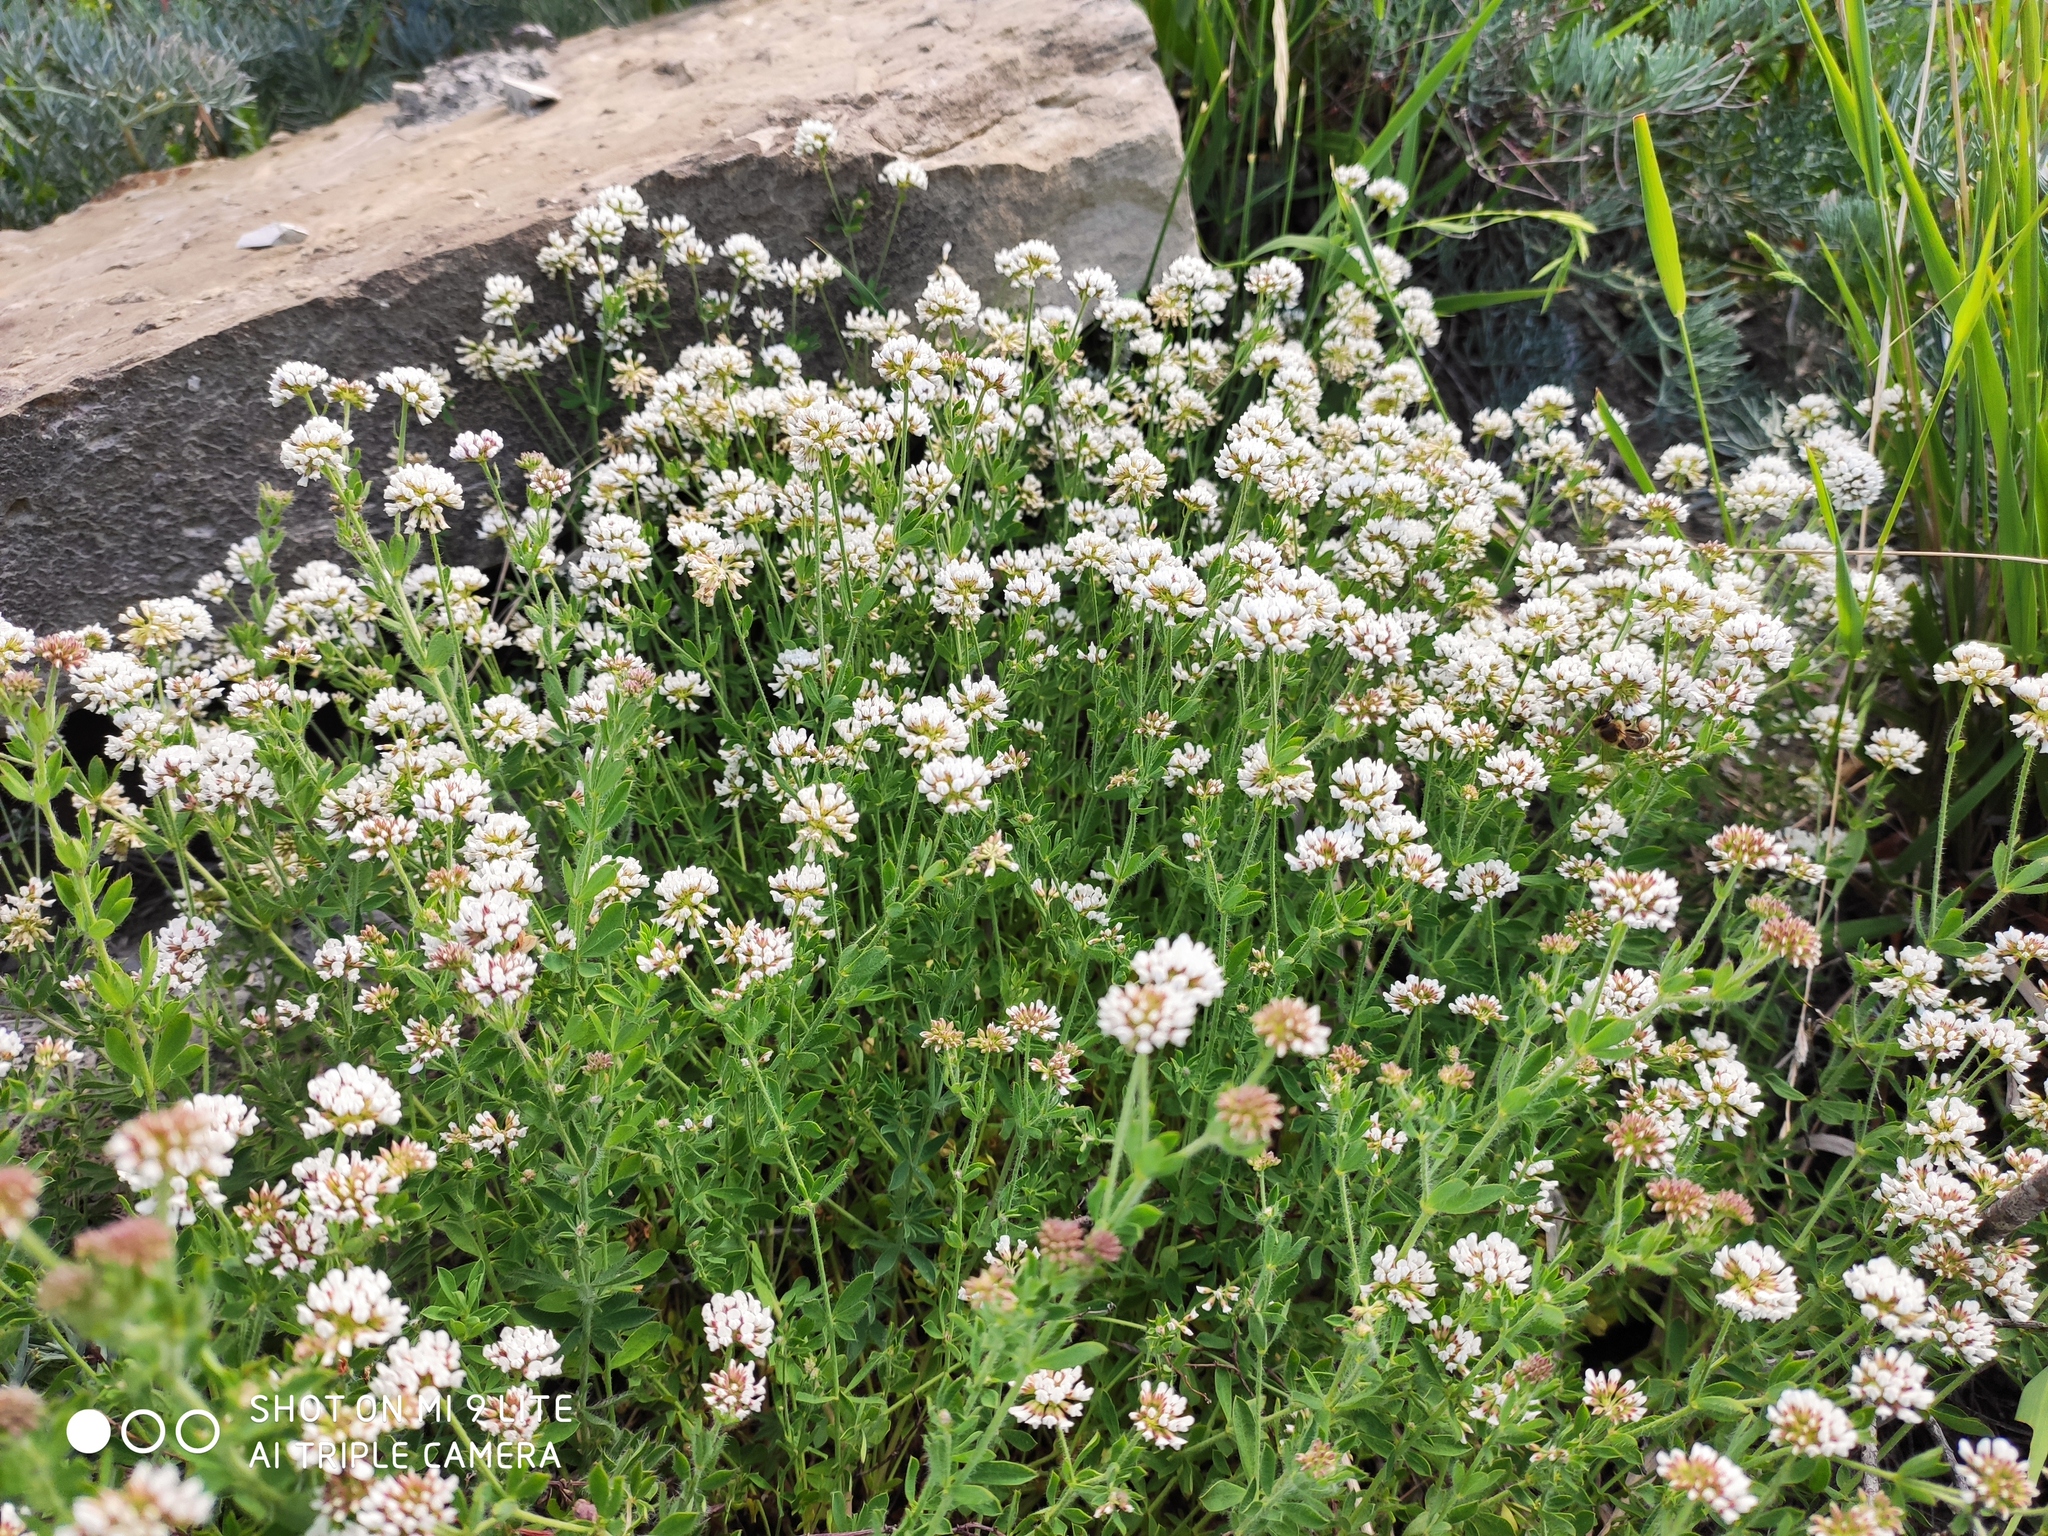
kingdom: Plantae
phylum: Tracheophyta
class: Magnoliopsida
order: Fabales
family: Fabaceae
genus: Lotus
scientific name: Lotus herbaceus
